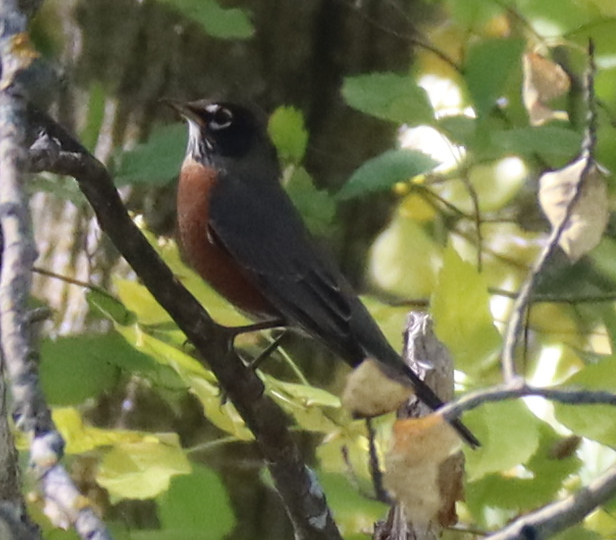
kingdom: Animalia
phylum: Chordata
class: Aves
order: Passeriformes
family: Turdidae
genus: Turdus
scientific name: Turdus migratorius
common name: American robin
